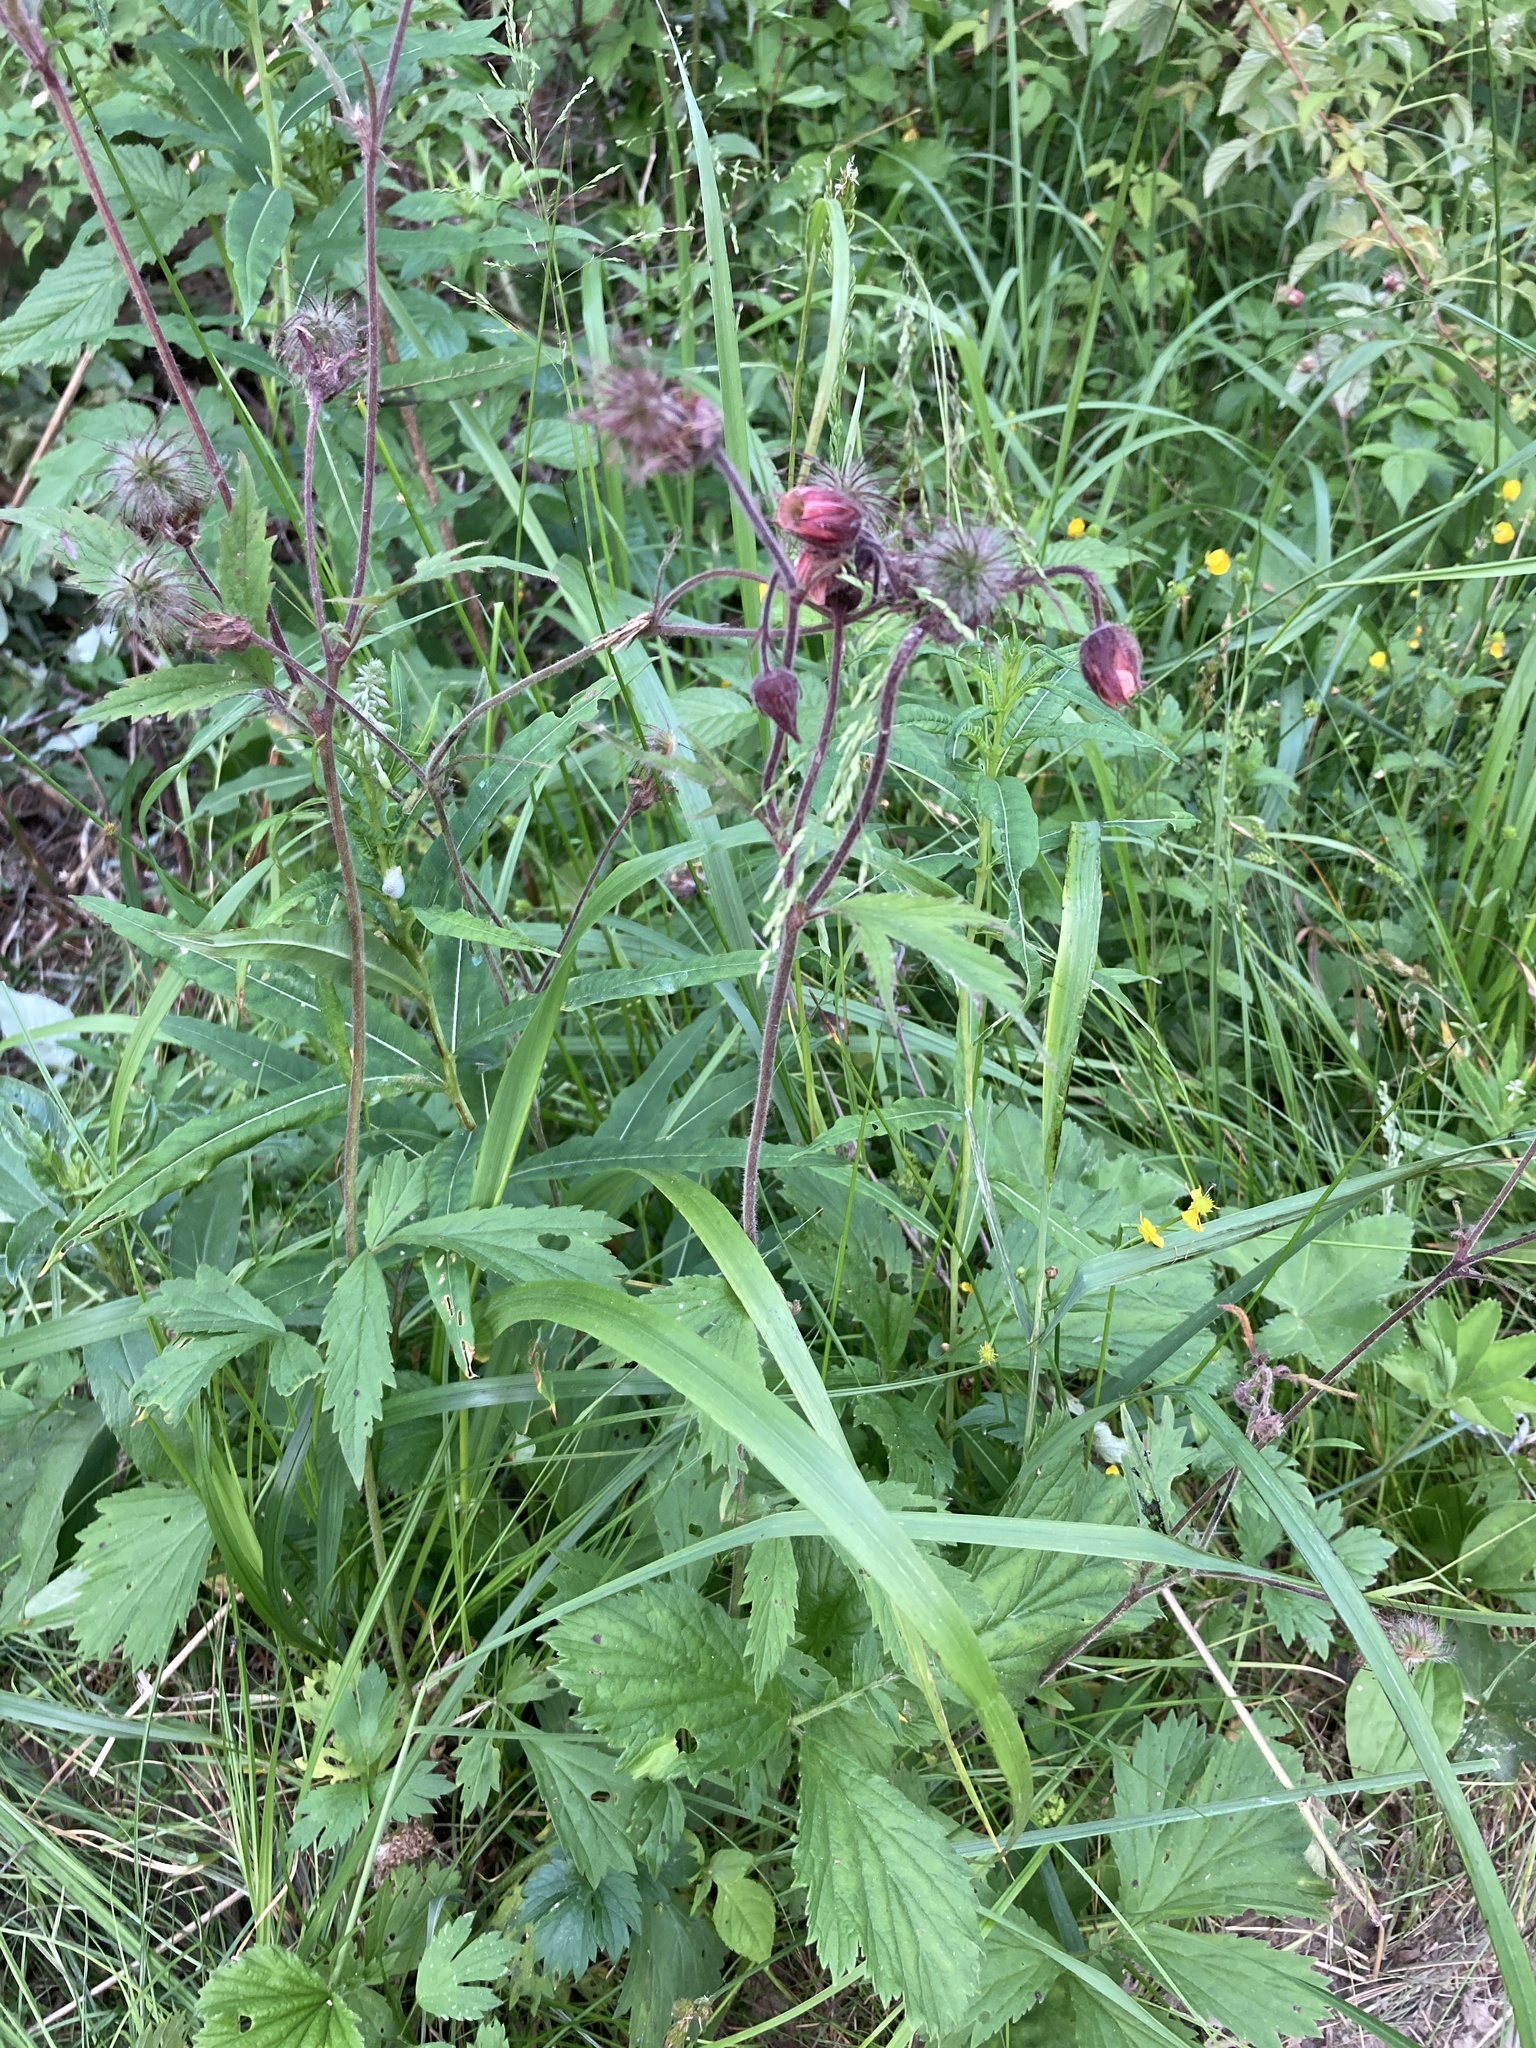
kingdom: Plantae
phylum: Tracheophyta
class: Magnoliopsida
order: Rosales
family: Rosaceae
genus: Geum
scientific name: Geum rivale
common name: Water avens
